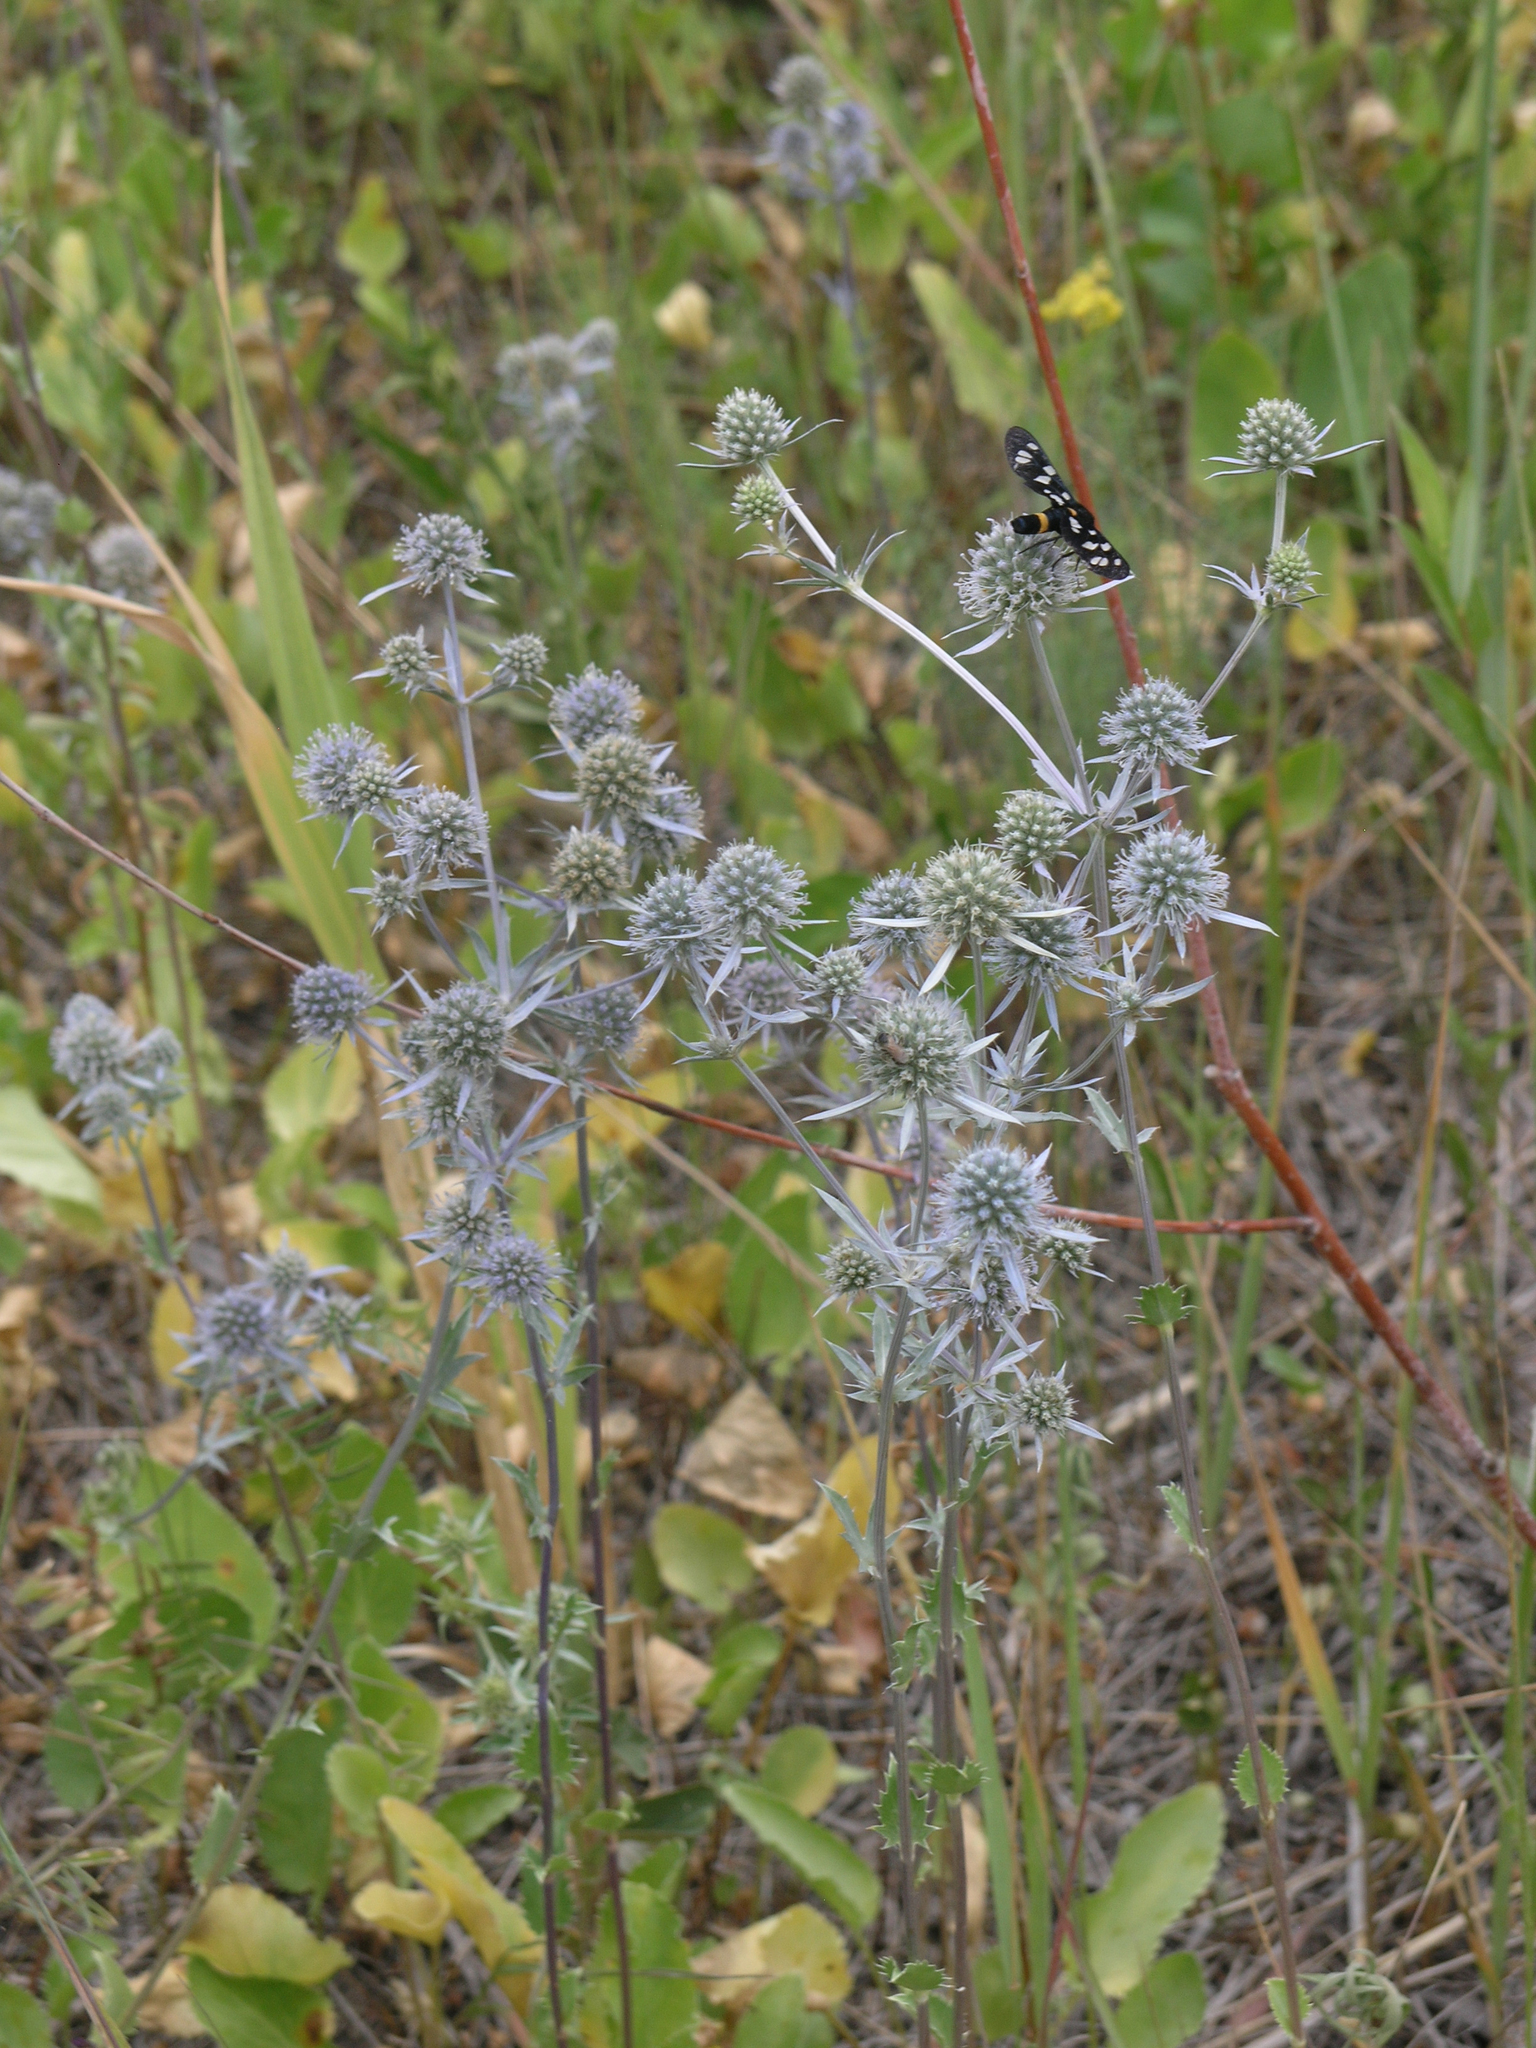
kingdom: Plantae
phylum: Tracheophyta
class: Magnoliopsida
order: Apiales
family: Apiaceae
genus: Eryngium
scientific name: Eryngium planum
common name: Blue eryngo
